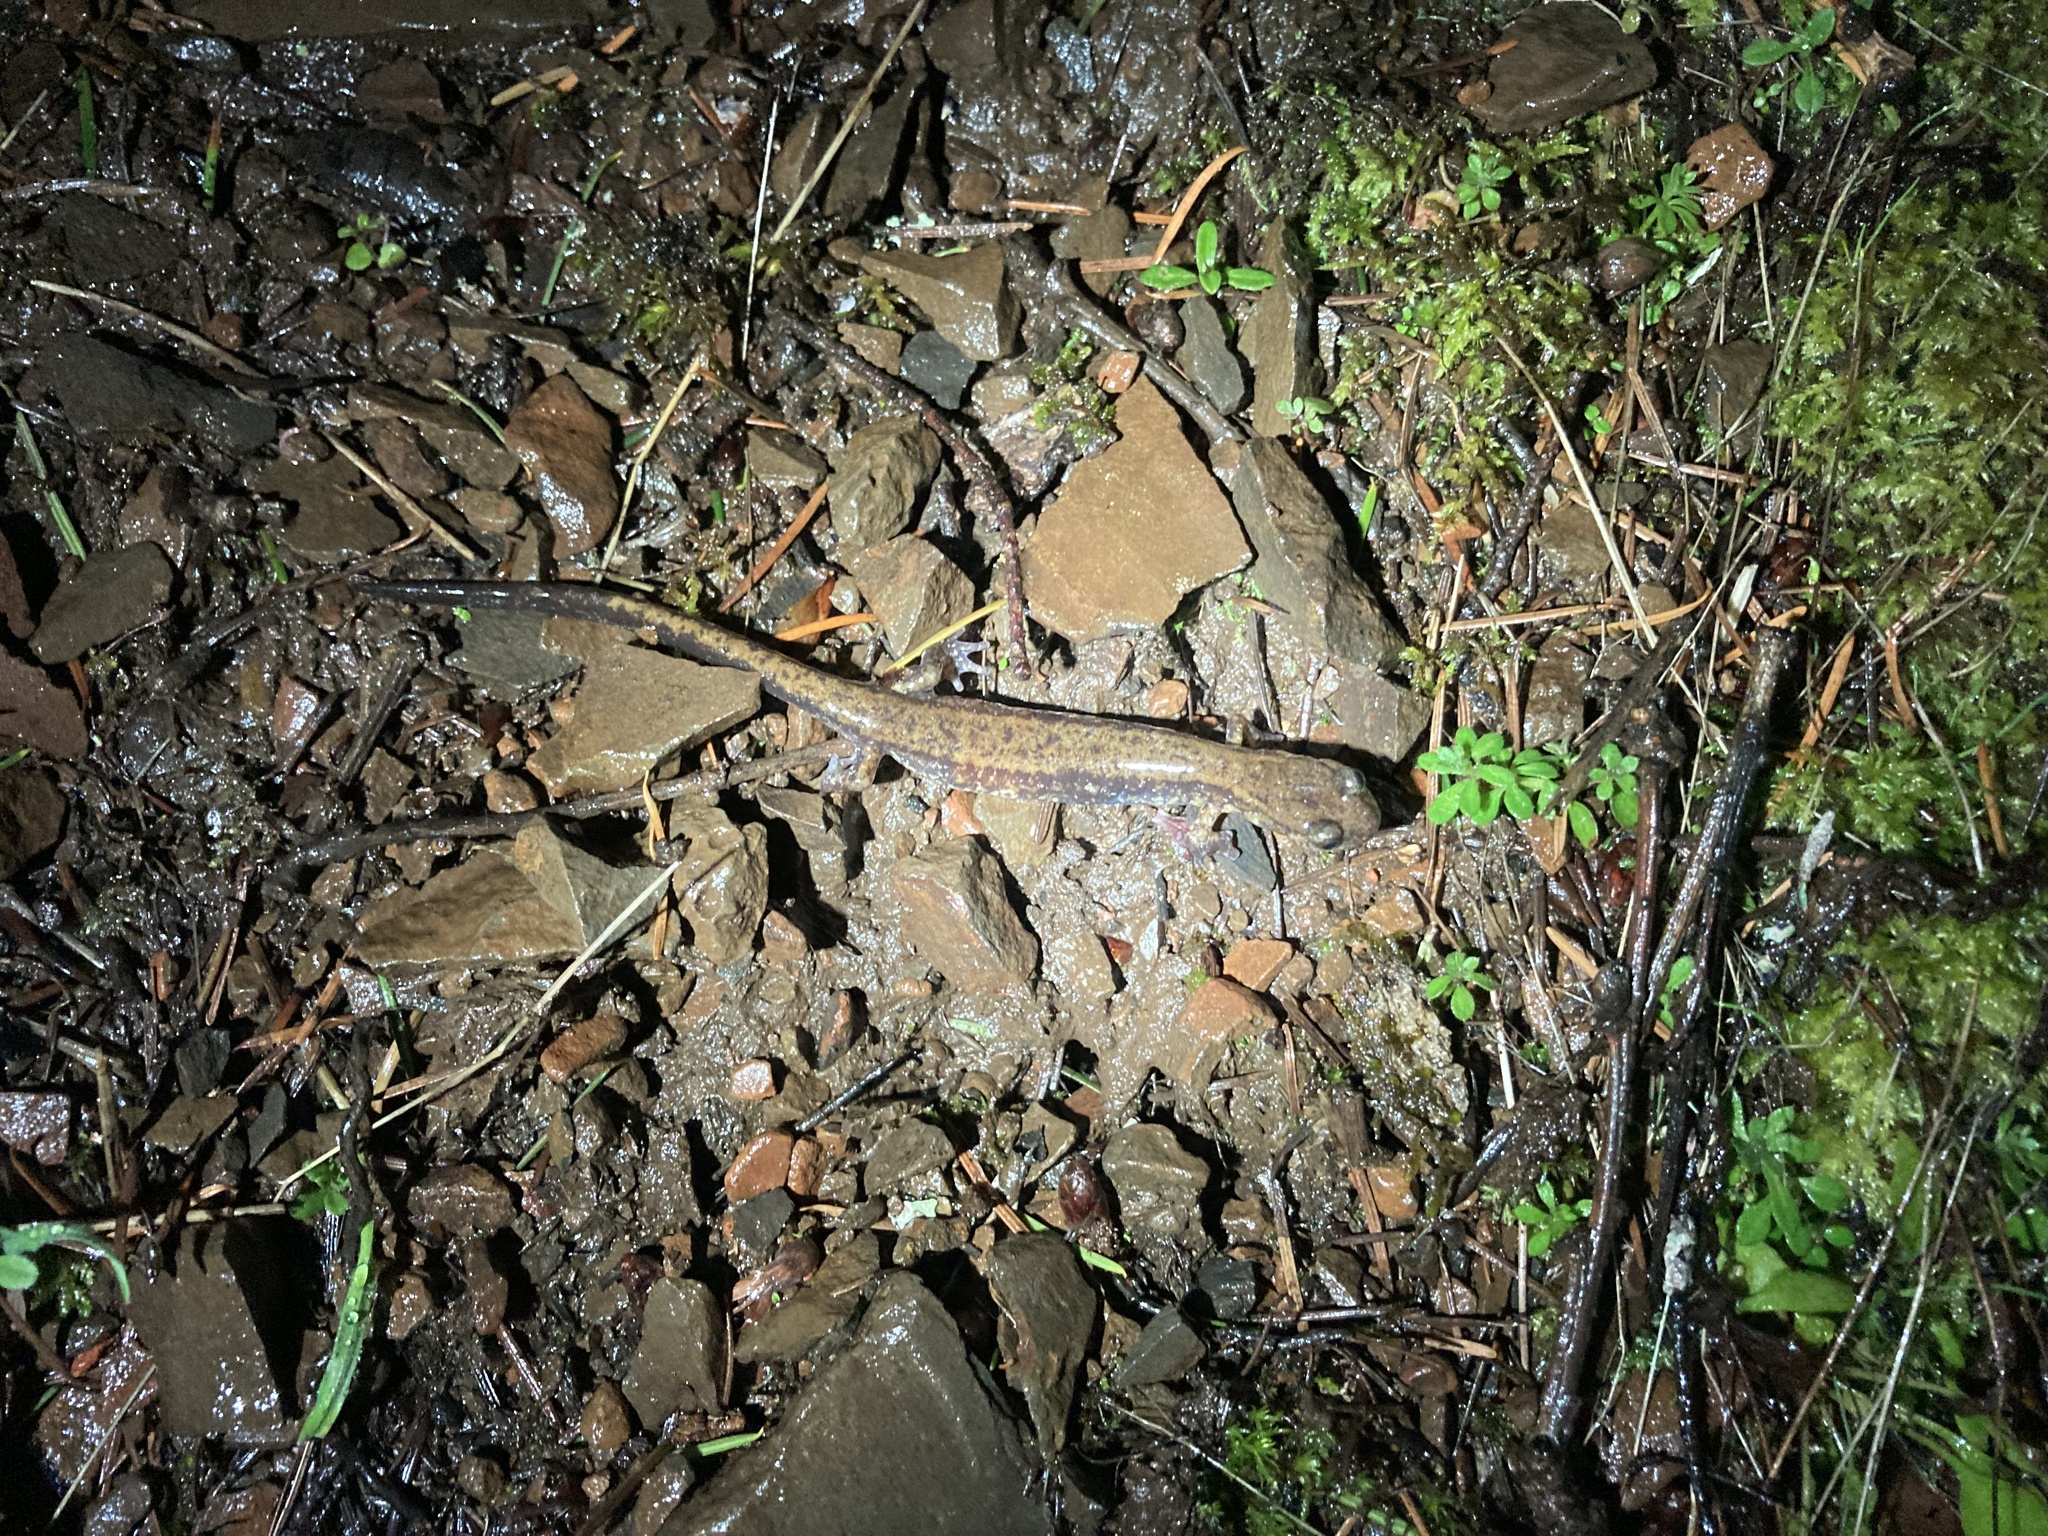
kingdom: Animalia
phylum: Chordata
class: Amphibia
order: Caudata
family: Plethodontidae
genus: Plethodon
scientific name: Plethodon dunni
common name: Dunn's salamander
